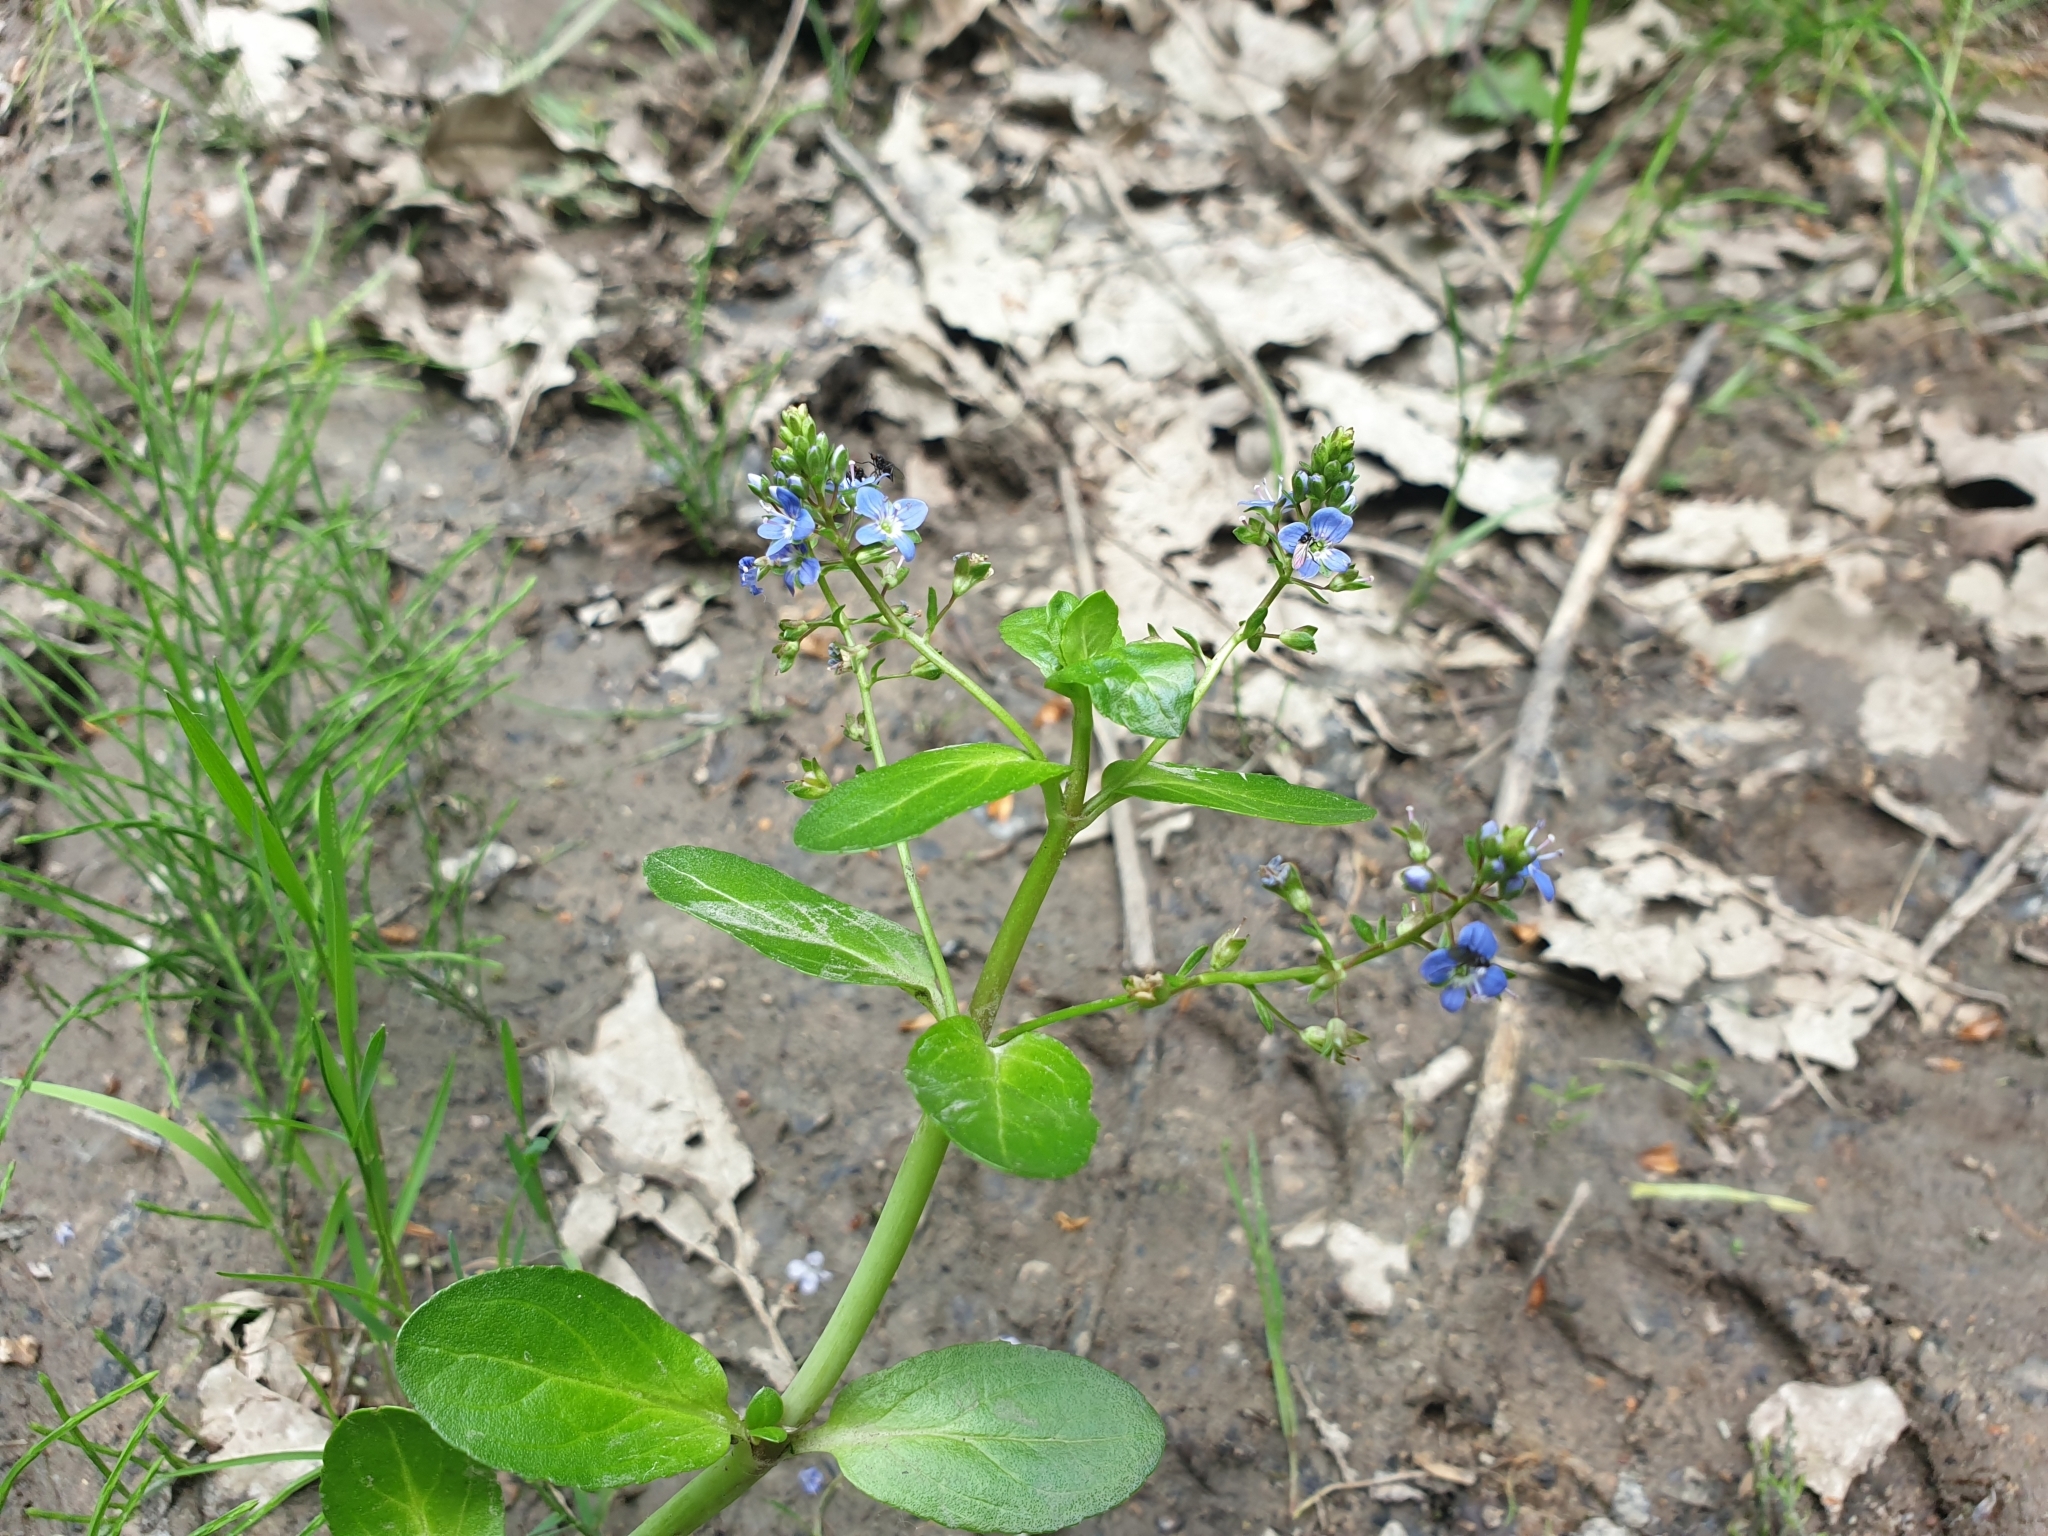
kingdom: Plantae
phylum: Tracheophyta
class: Magnoliopsida
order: Lamiales
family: Plantaginaceae
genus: Veronica
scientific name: Veronica beccabunga
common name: Brooklime
